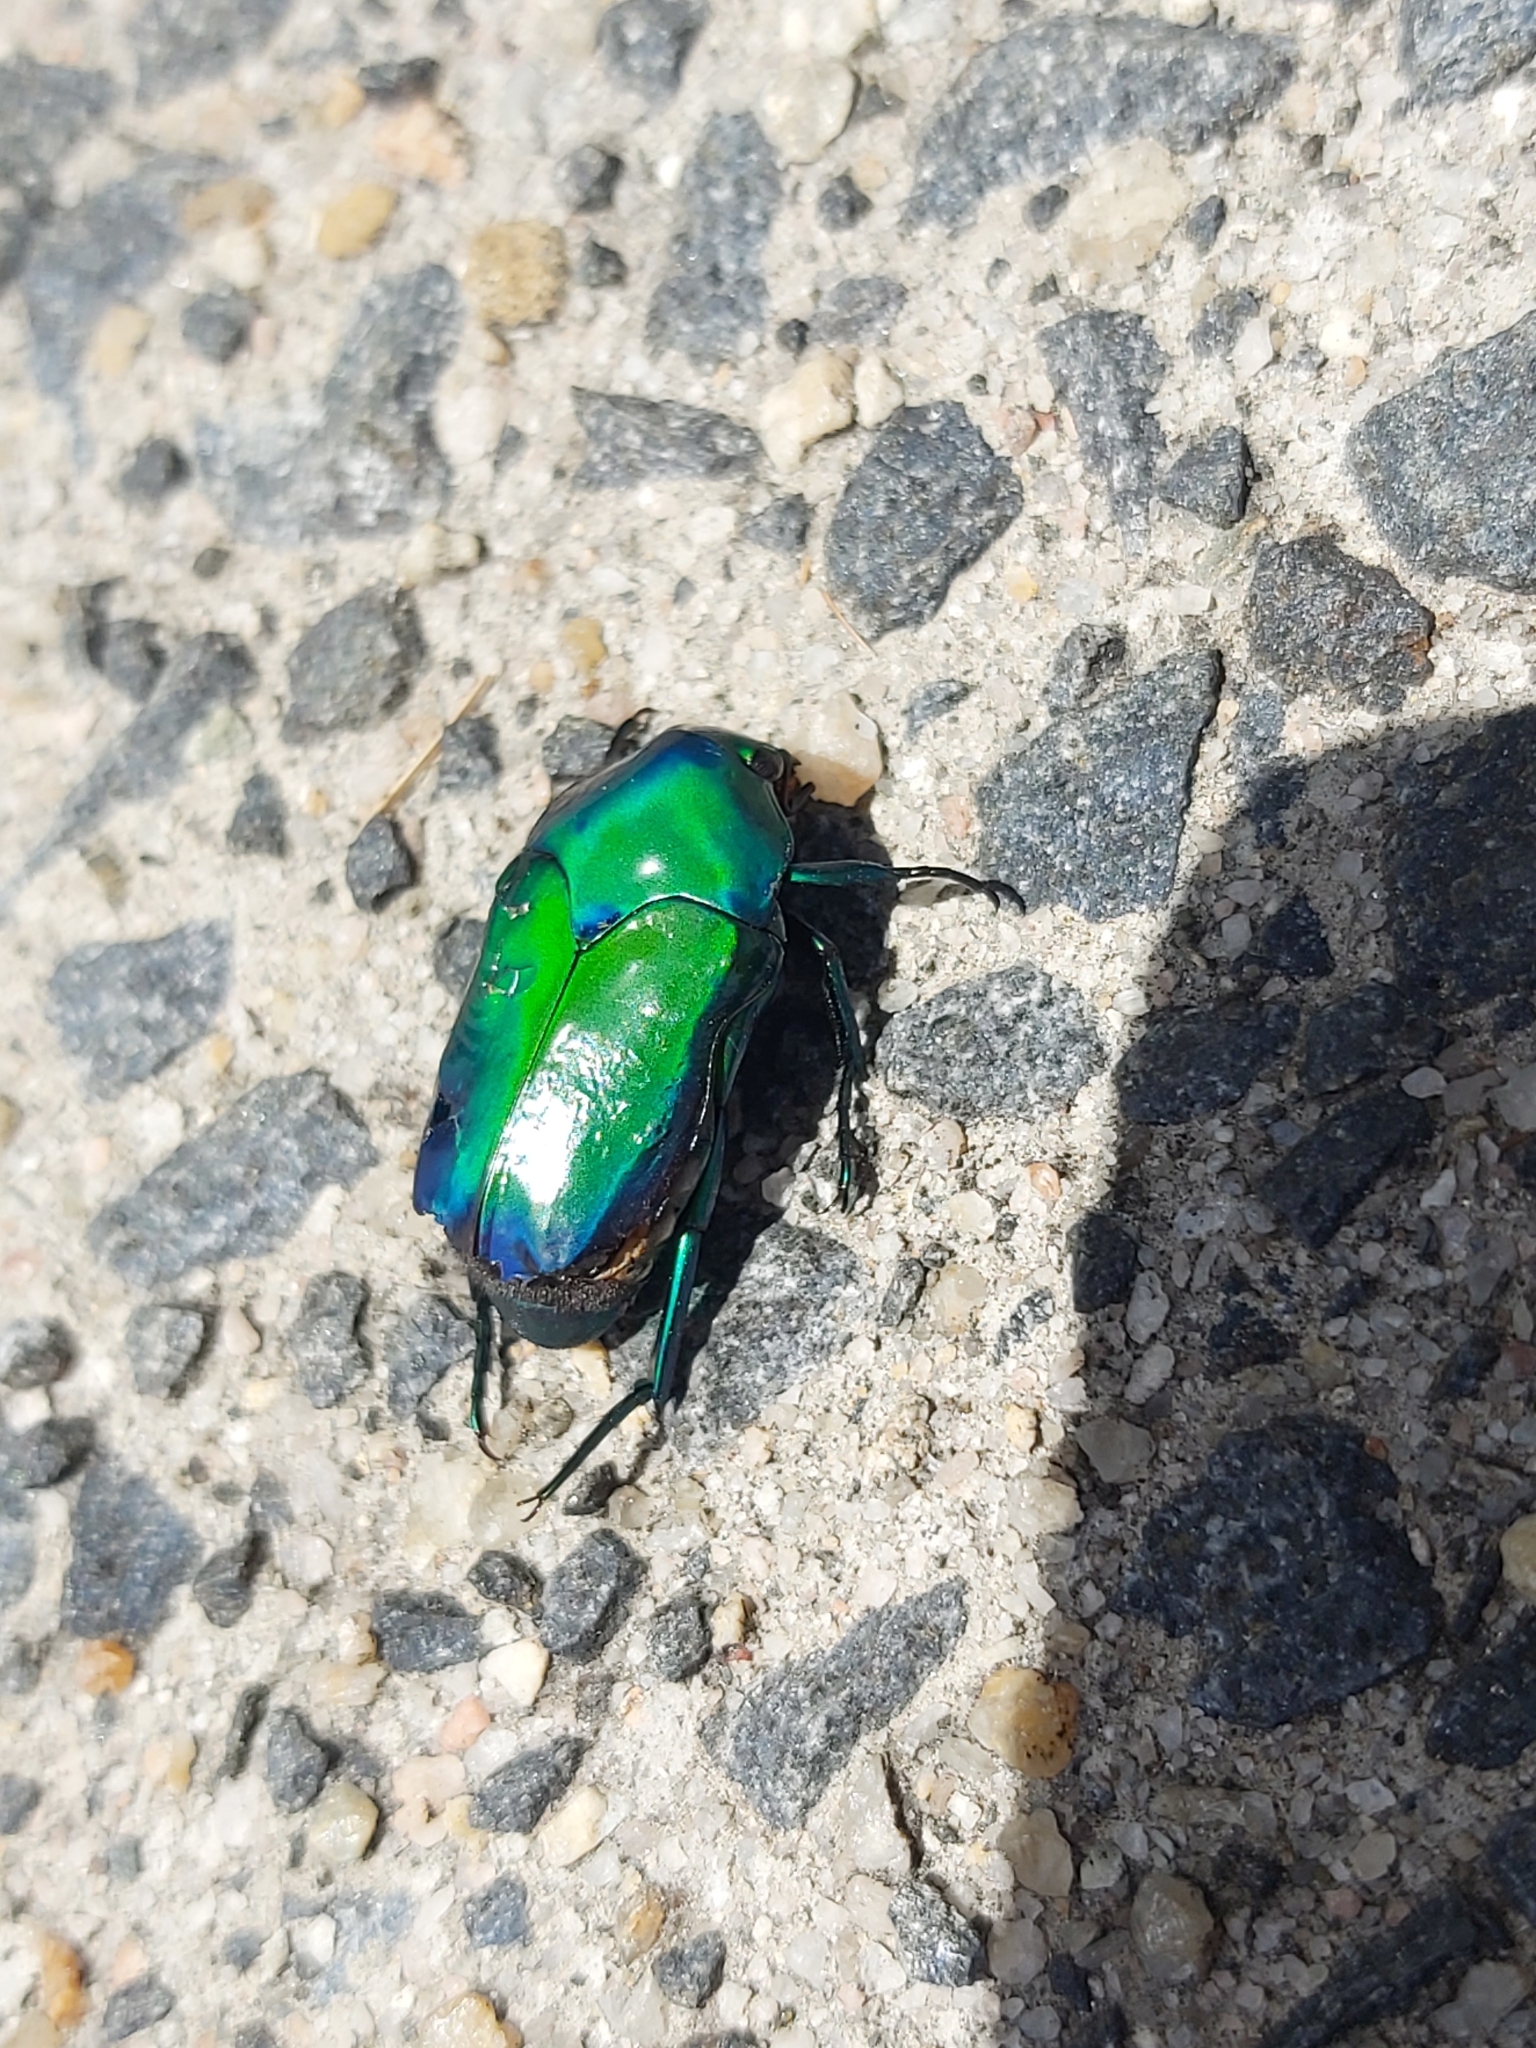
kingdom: Animalia
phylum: Arthropoda
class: Insecta
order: Coleoptera
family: Scarabaeidae
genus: Ischiopsopha
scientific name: Ischiopsopha wallacei
